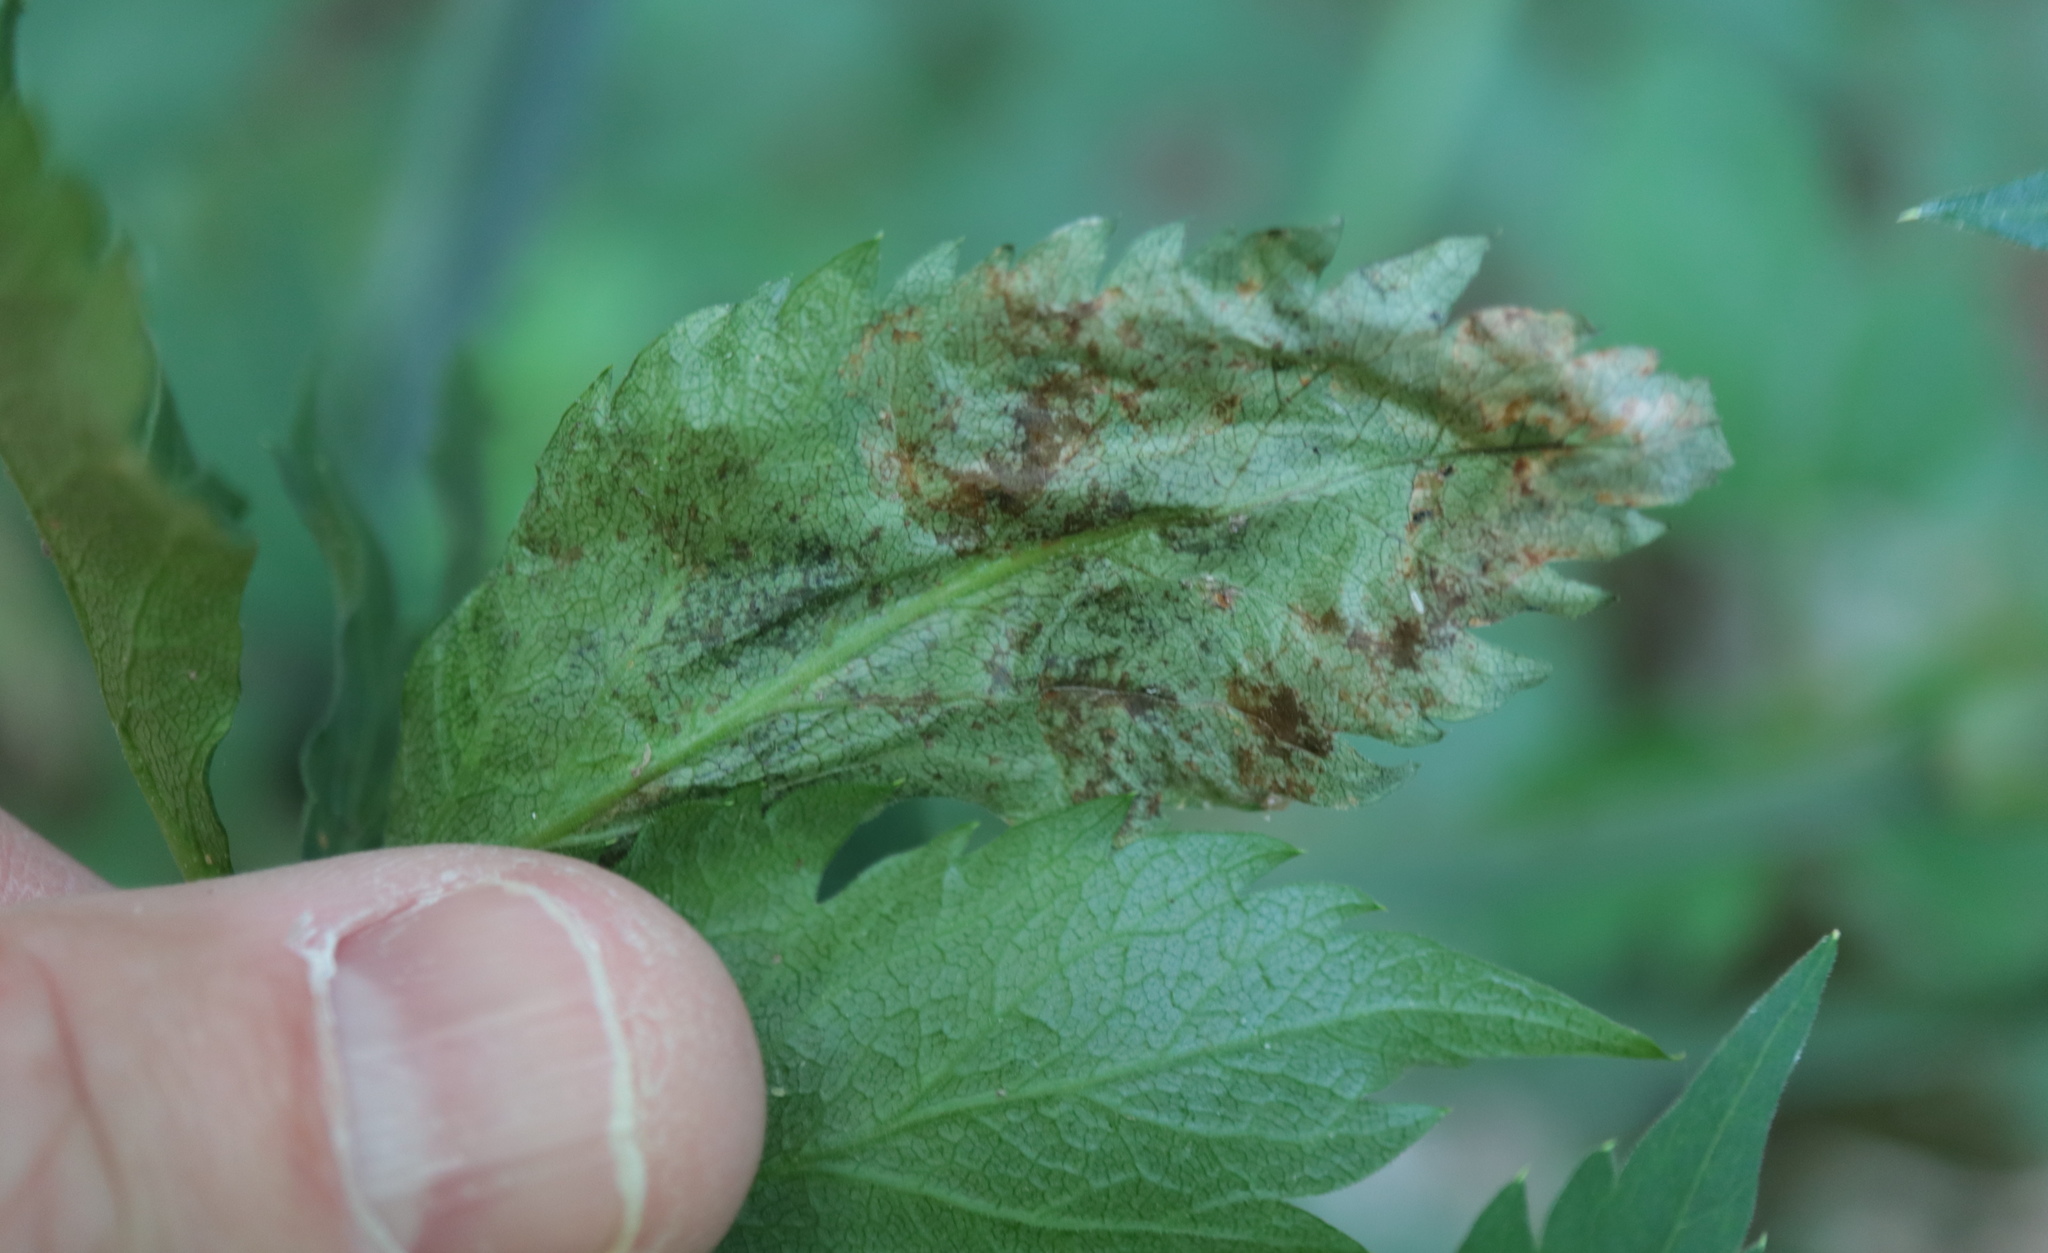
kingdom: Animalia
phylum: Arthropoda
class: Insecta
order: Diptera
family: Tephritidae
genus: Euleia
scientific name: Euleia fratria
